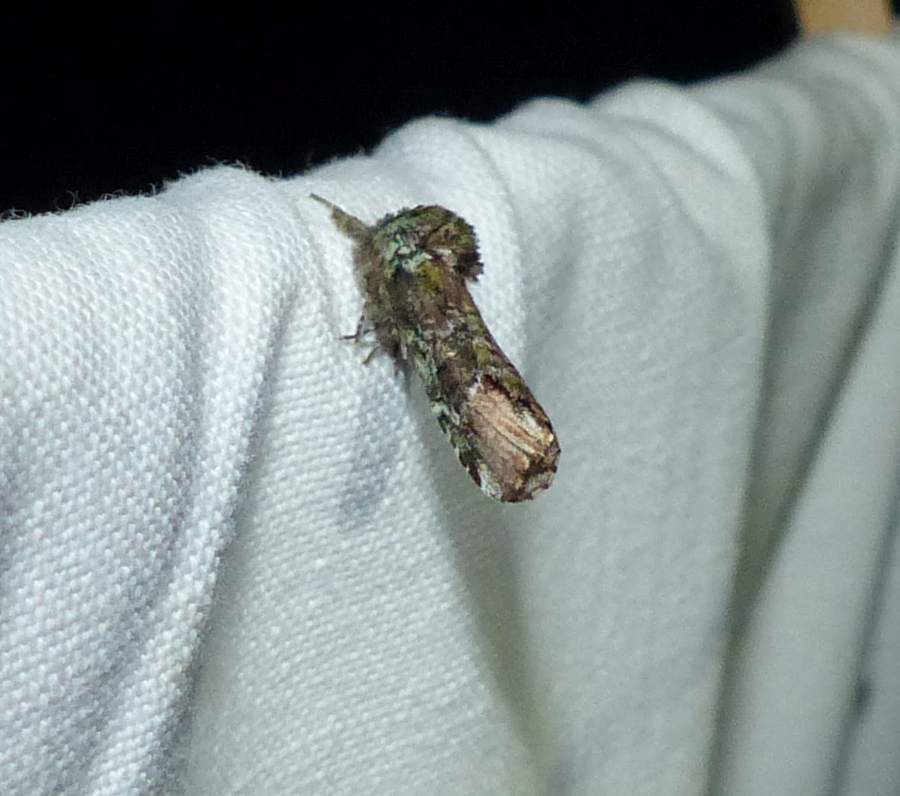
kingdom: Animalia
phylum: Arthropoda
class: Insecta
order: Lepidoptera
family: Notodontidae
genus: Schizura
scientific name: Schizura
